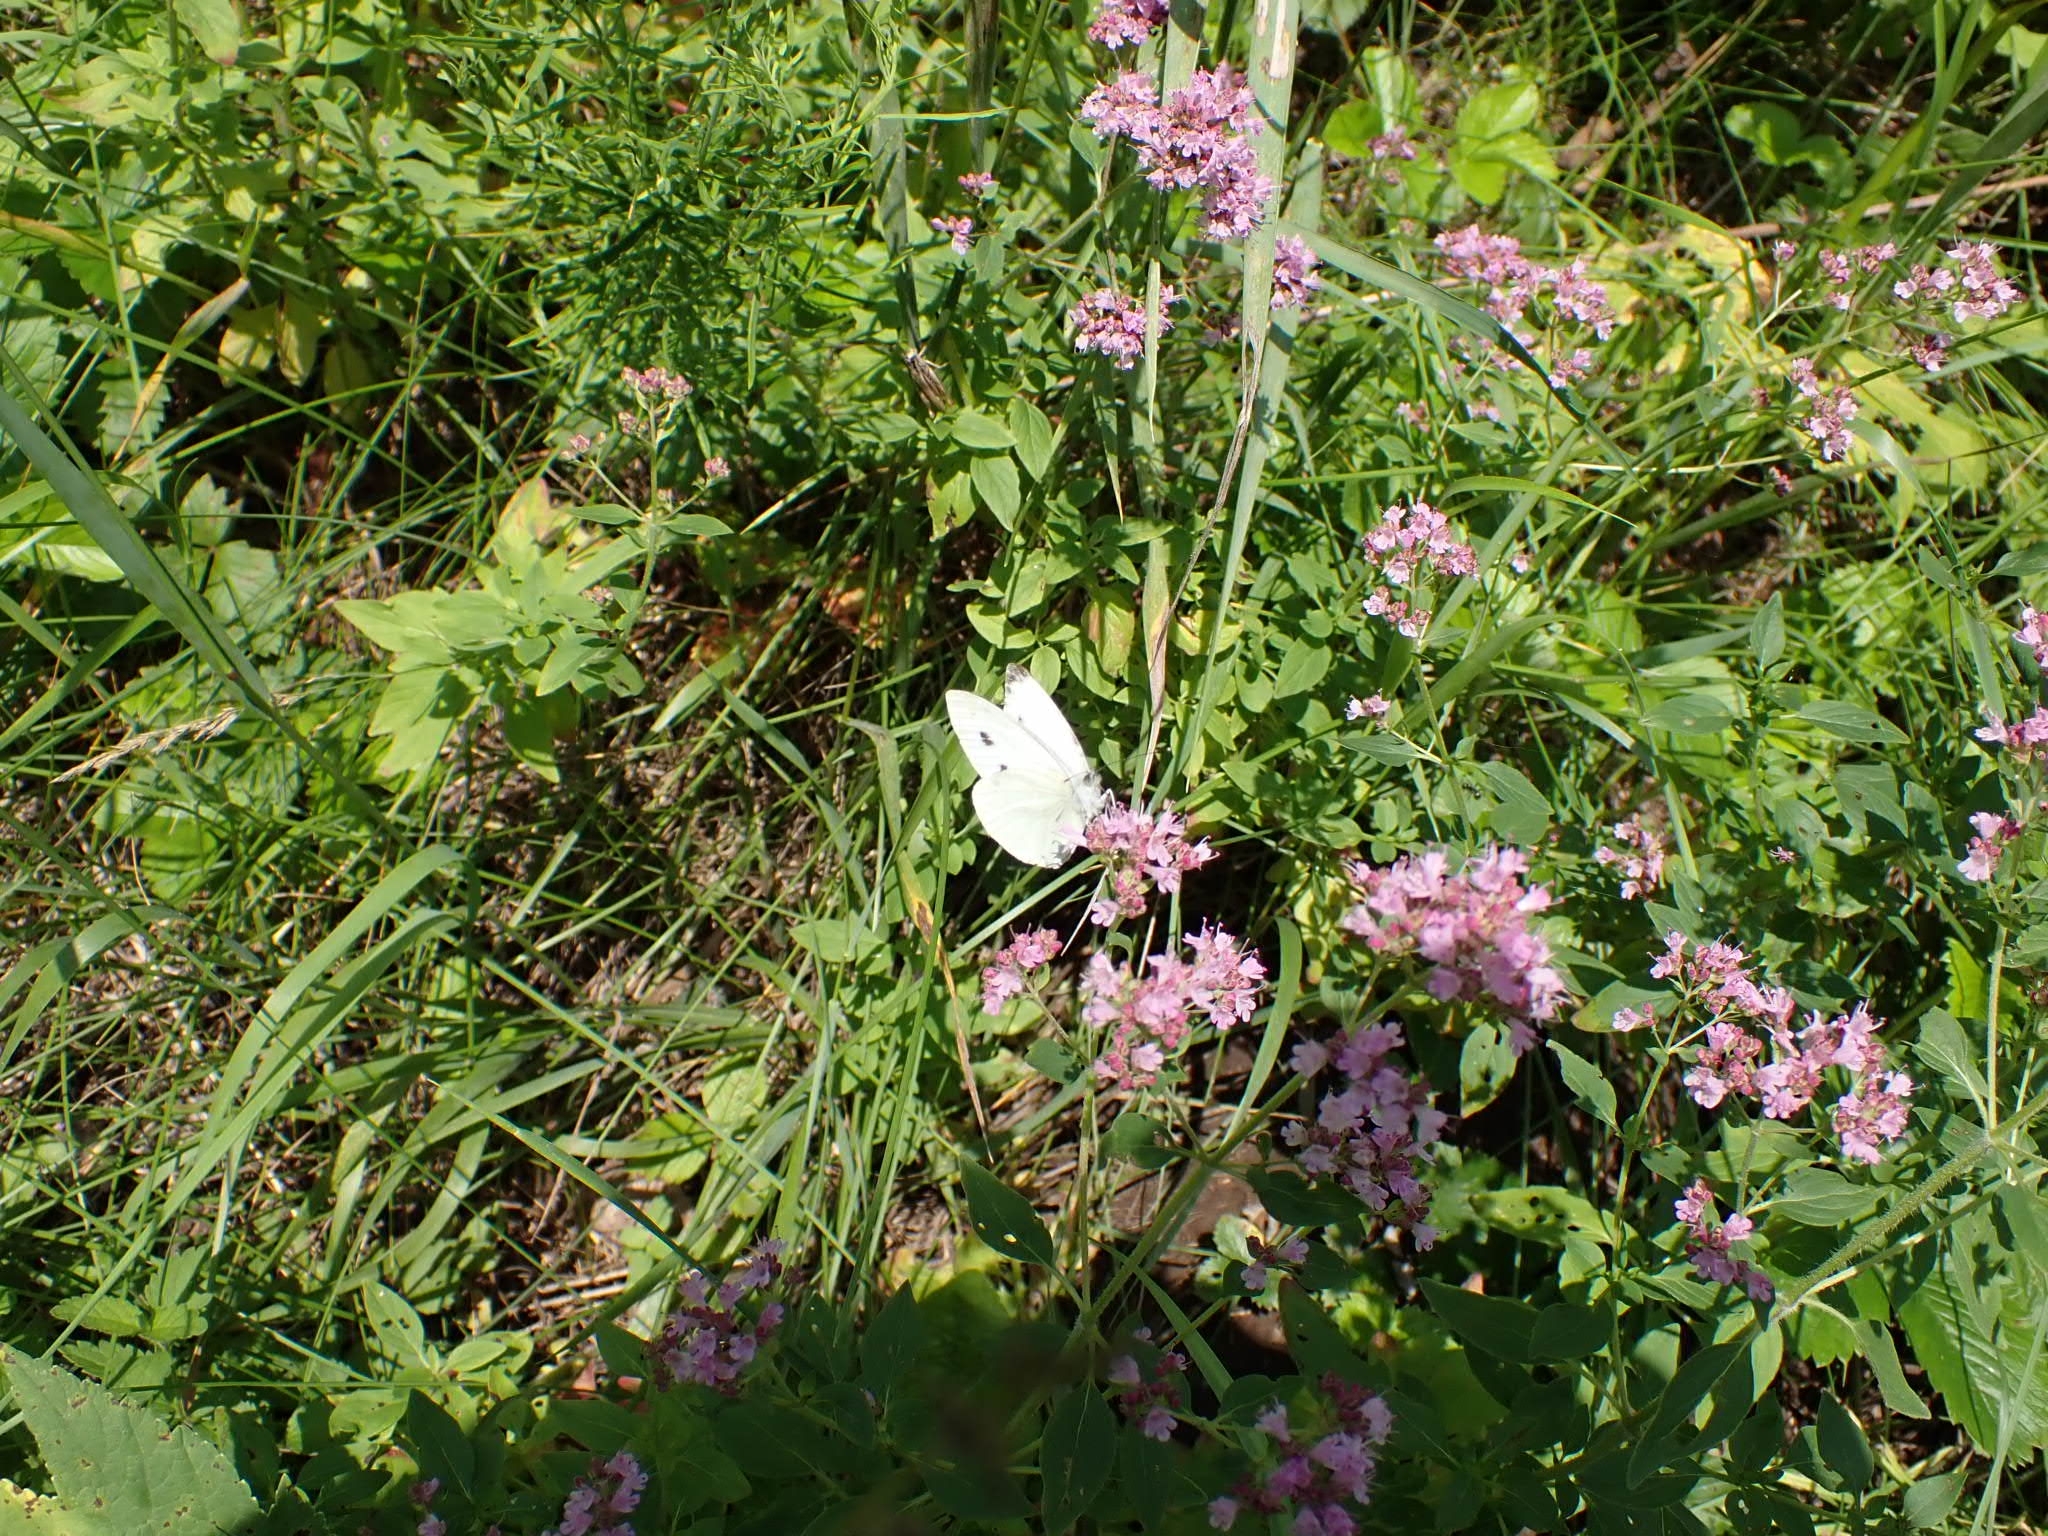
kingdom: Animalia
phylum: Arthropoda
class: Insecta
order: Lepidoptera
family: Pieridae
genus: Pieris
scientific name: Pieris napi
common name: Green-veined white
